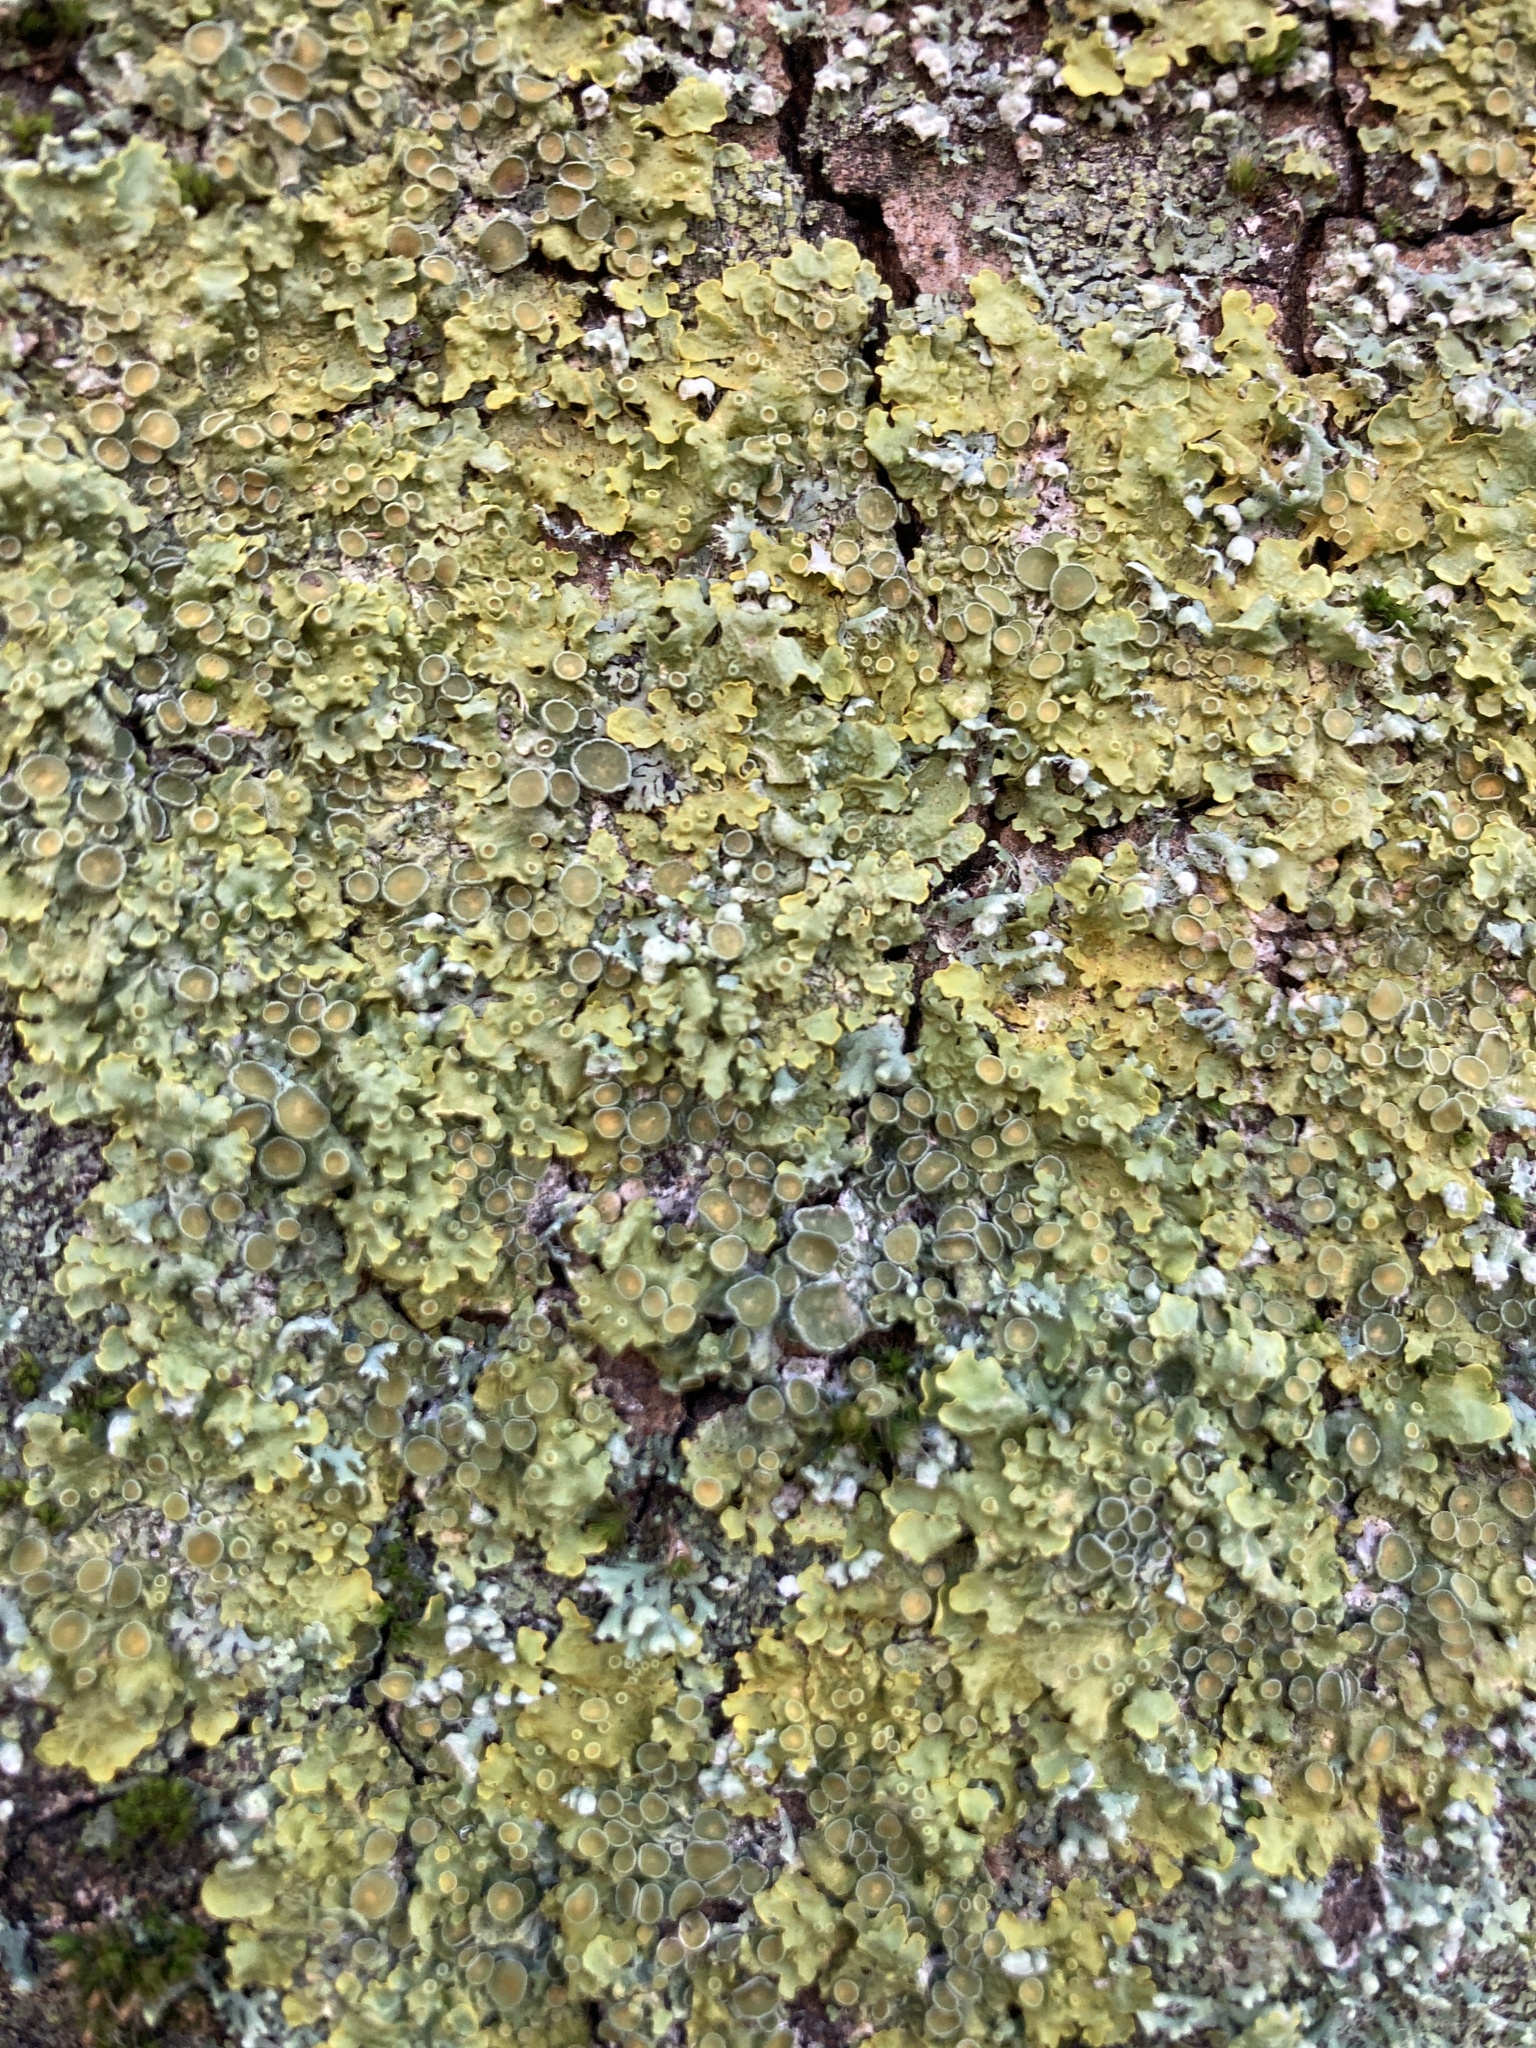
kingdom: Fungi
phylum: Ascomycota
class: Lecanoromycetes
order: Teloschistales
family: Teloschistaceae
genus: Xanthoria
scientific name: Xanthoria parietina
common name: Common orange lichen
